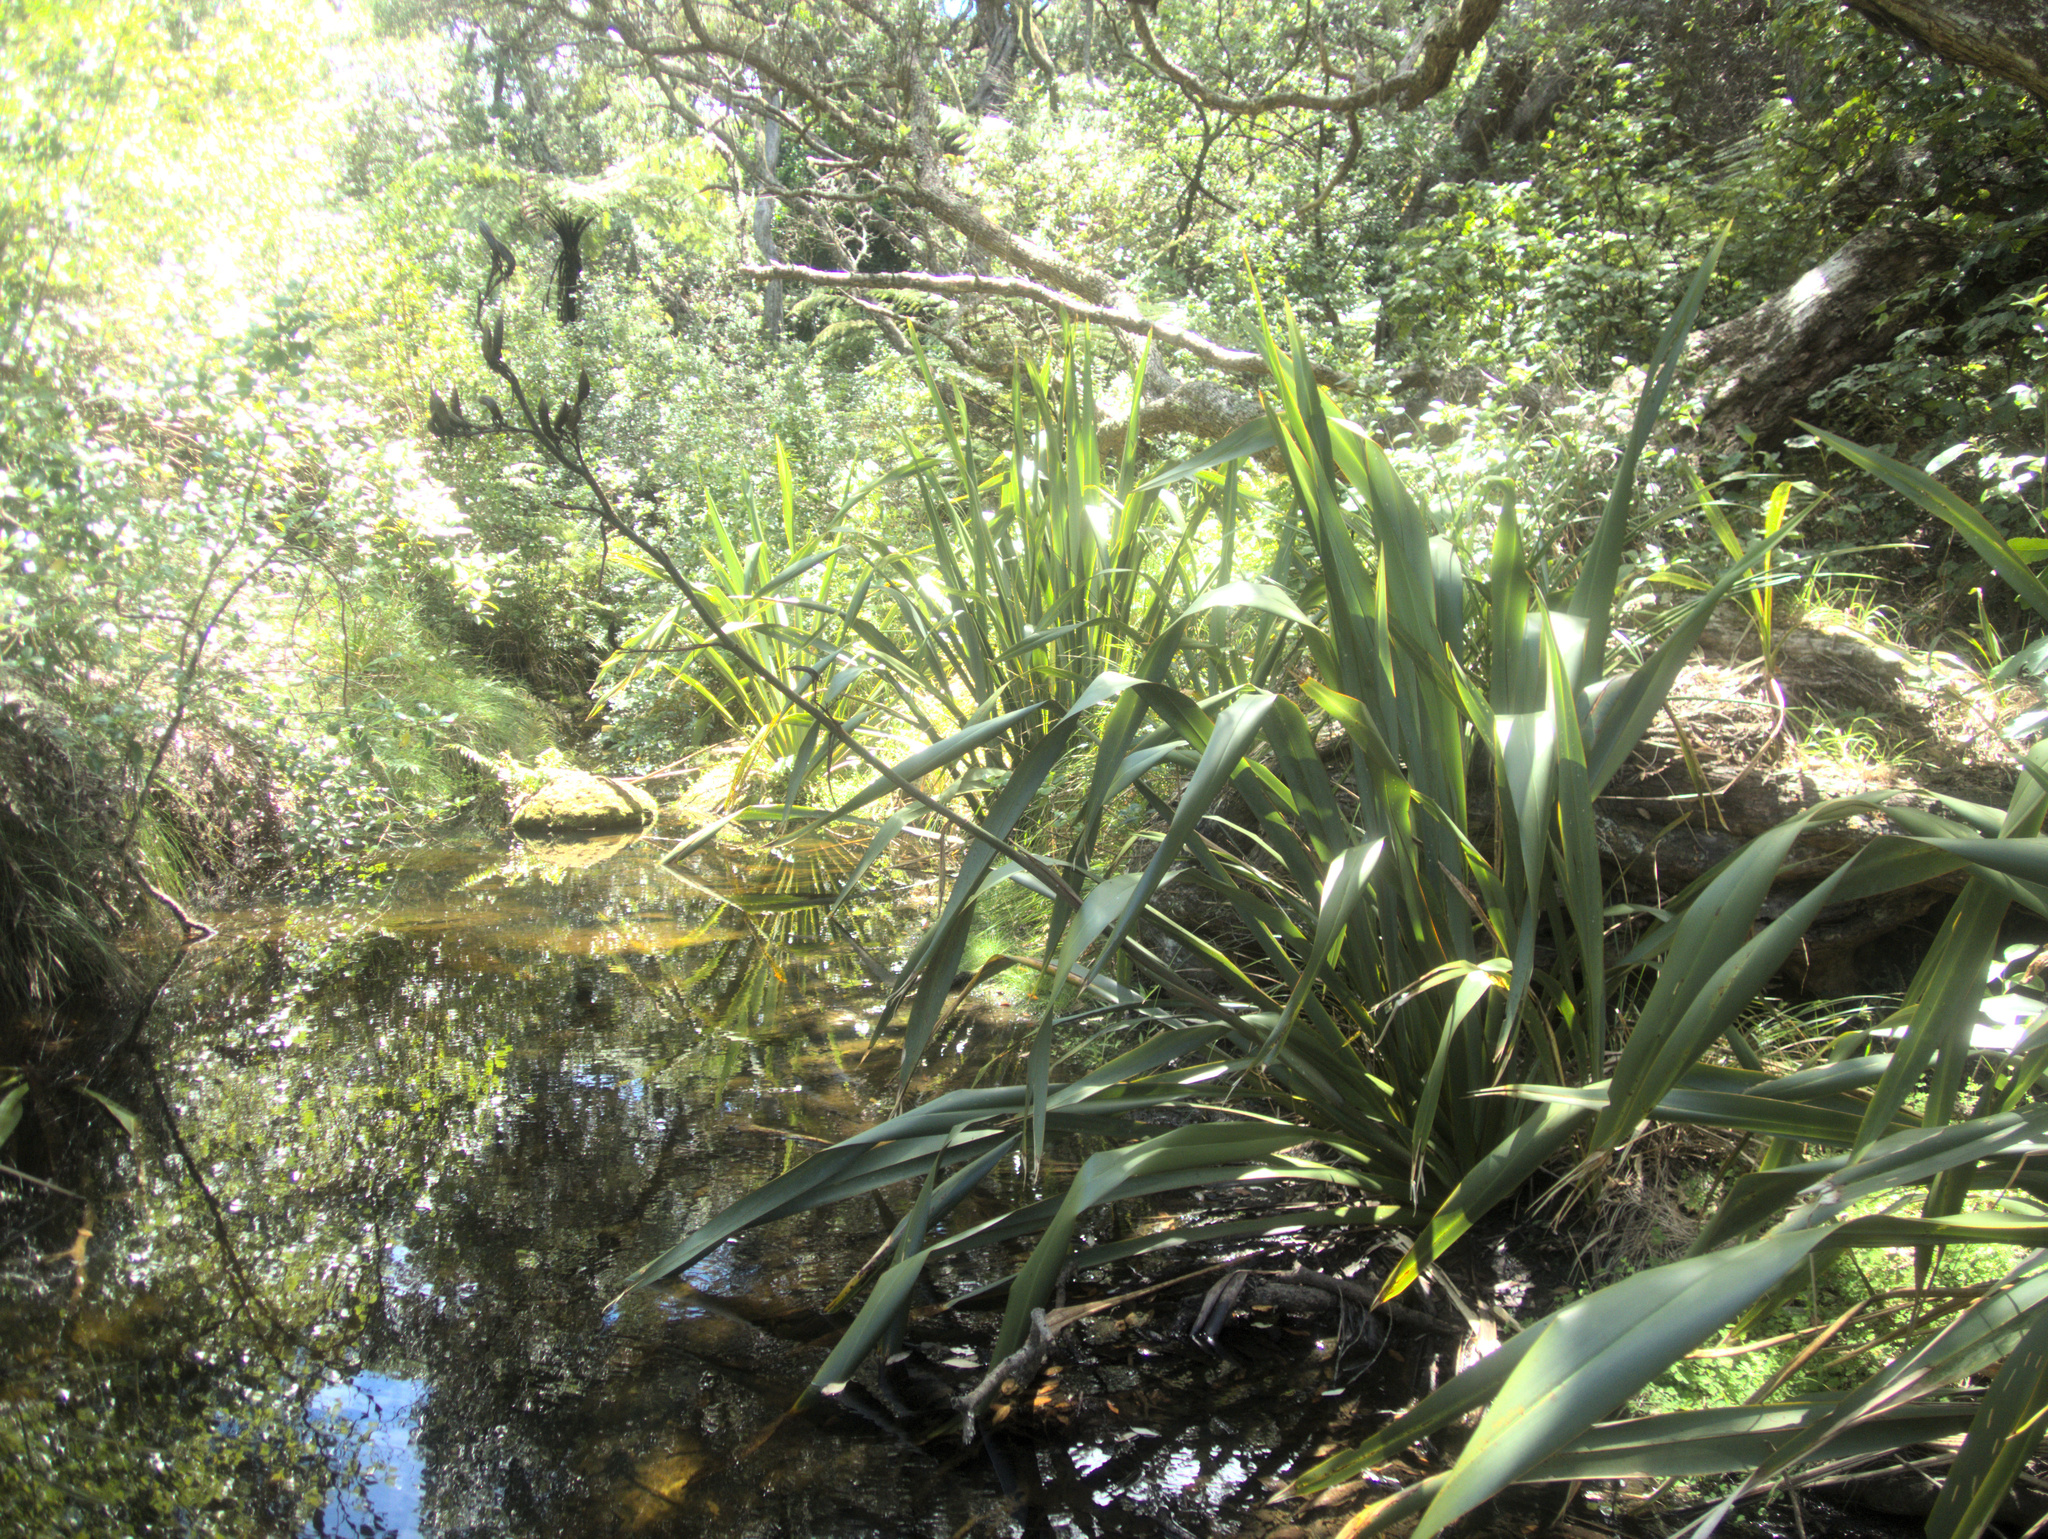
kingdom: Plantae
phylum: Tracheophyta
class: Liliopsida
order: Asparagales
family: Asphodelaceae
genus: Phormium
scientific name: Phormium tenax
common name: New zealand flax
